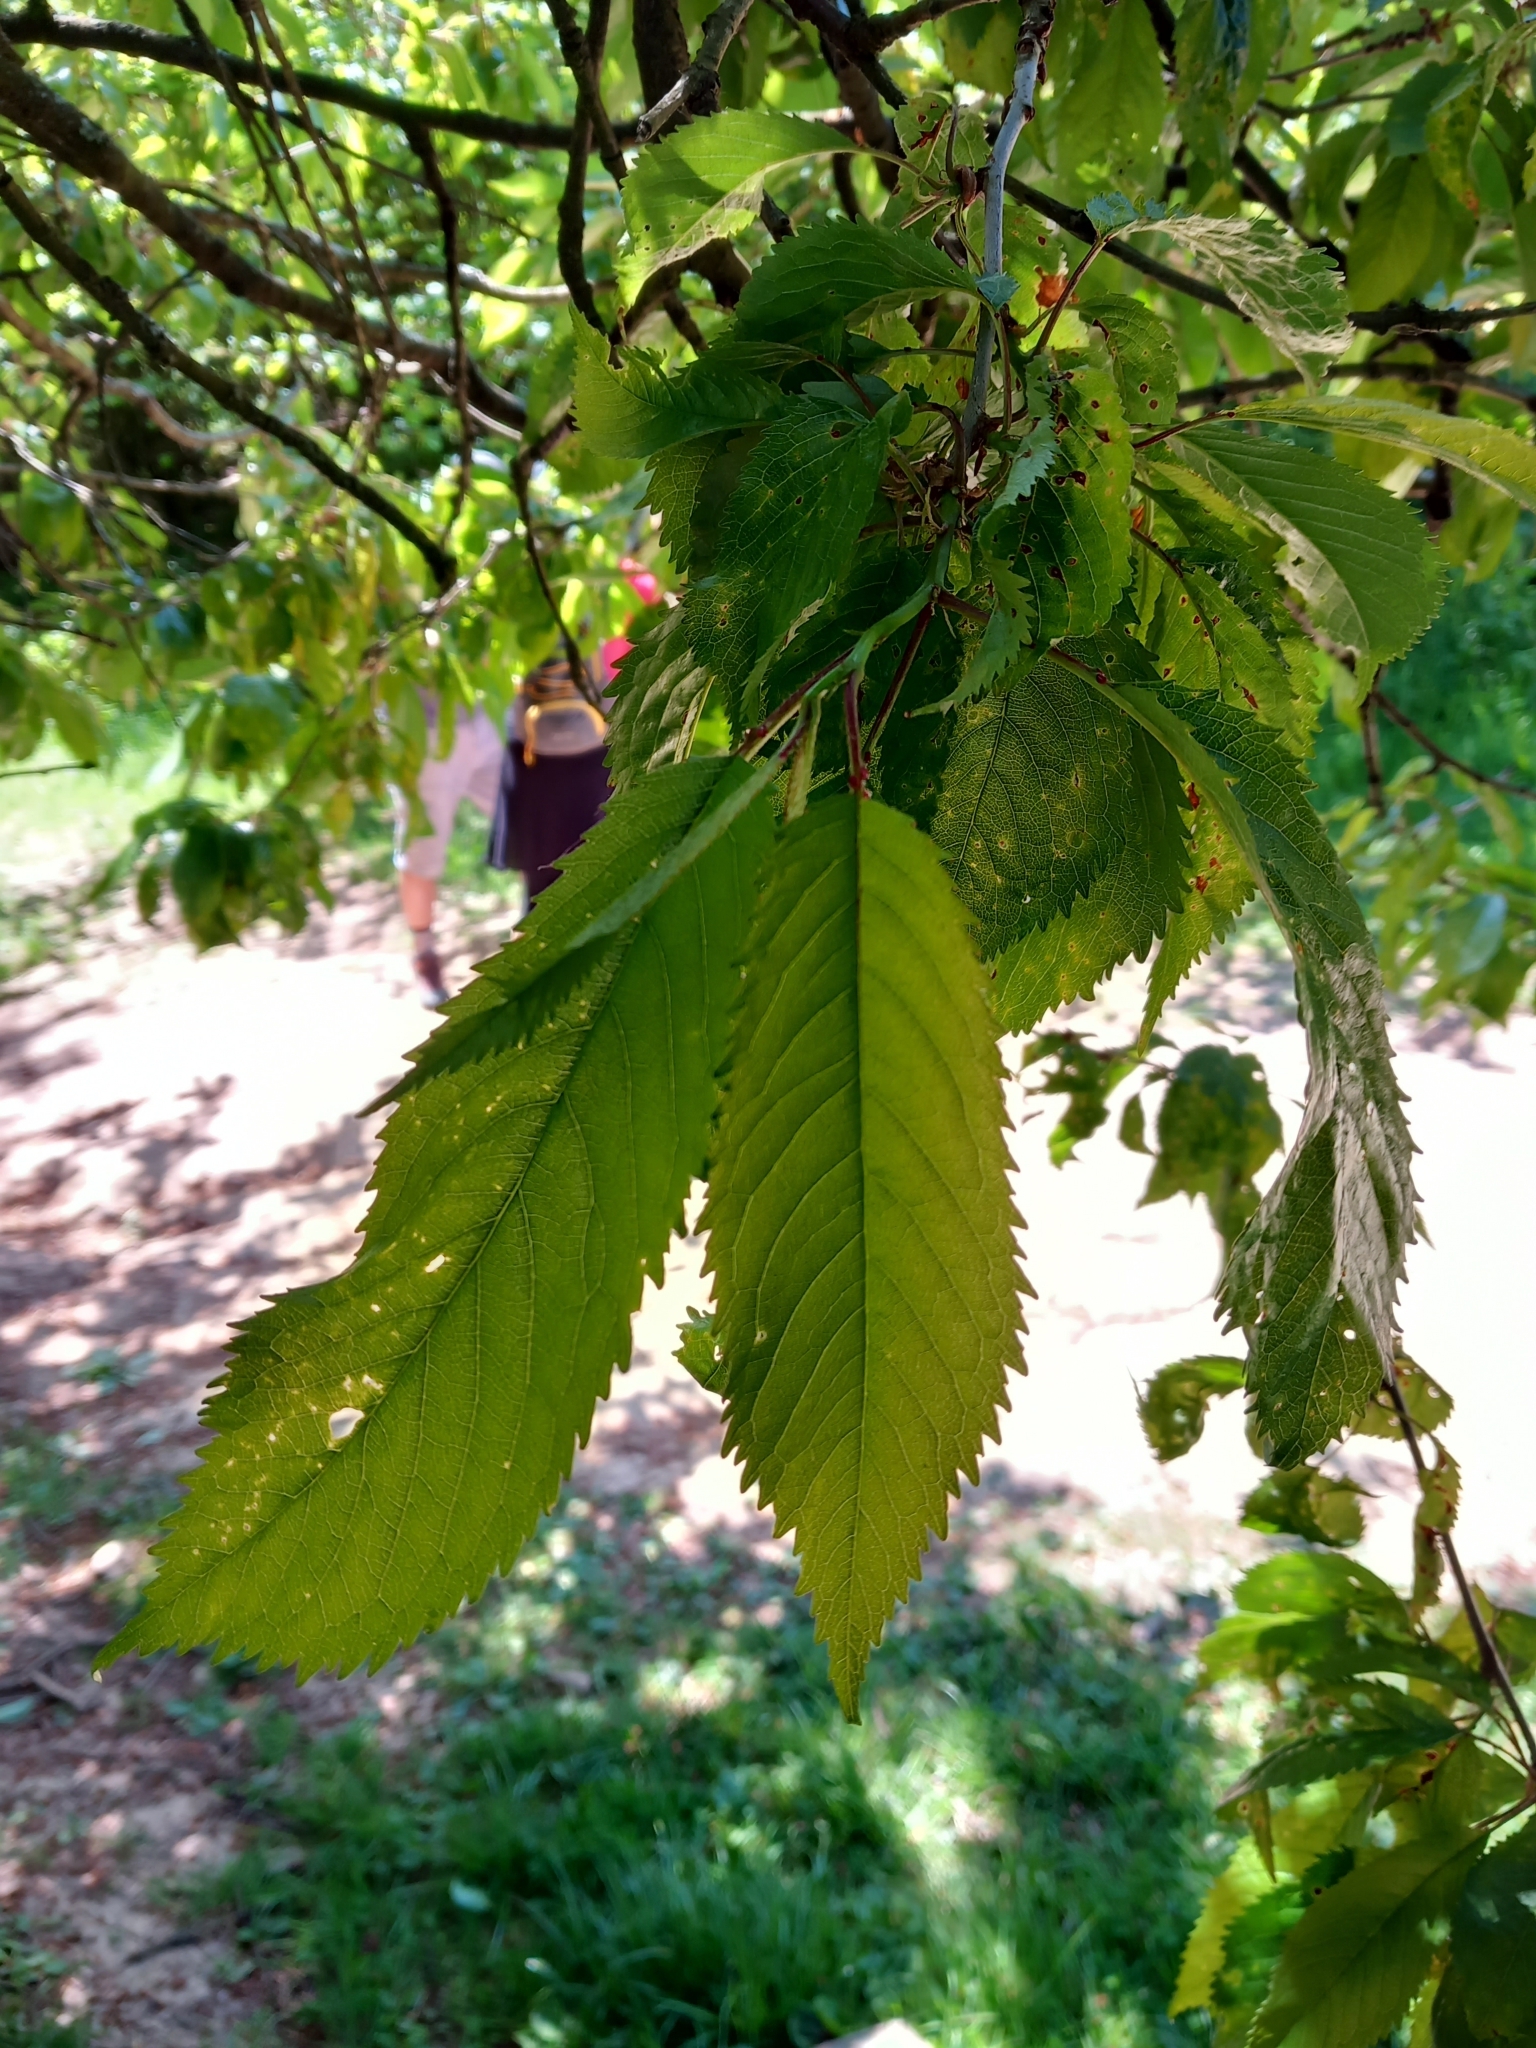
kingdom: Plantae
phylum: Tracheophyta
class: Magnoliopsida
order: Rosales
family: Rosaceae
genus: Prunus
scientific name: Prunus avium
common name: Sweet cherry
